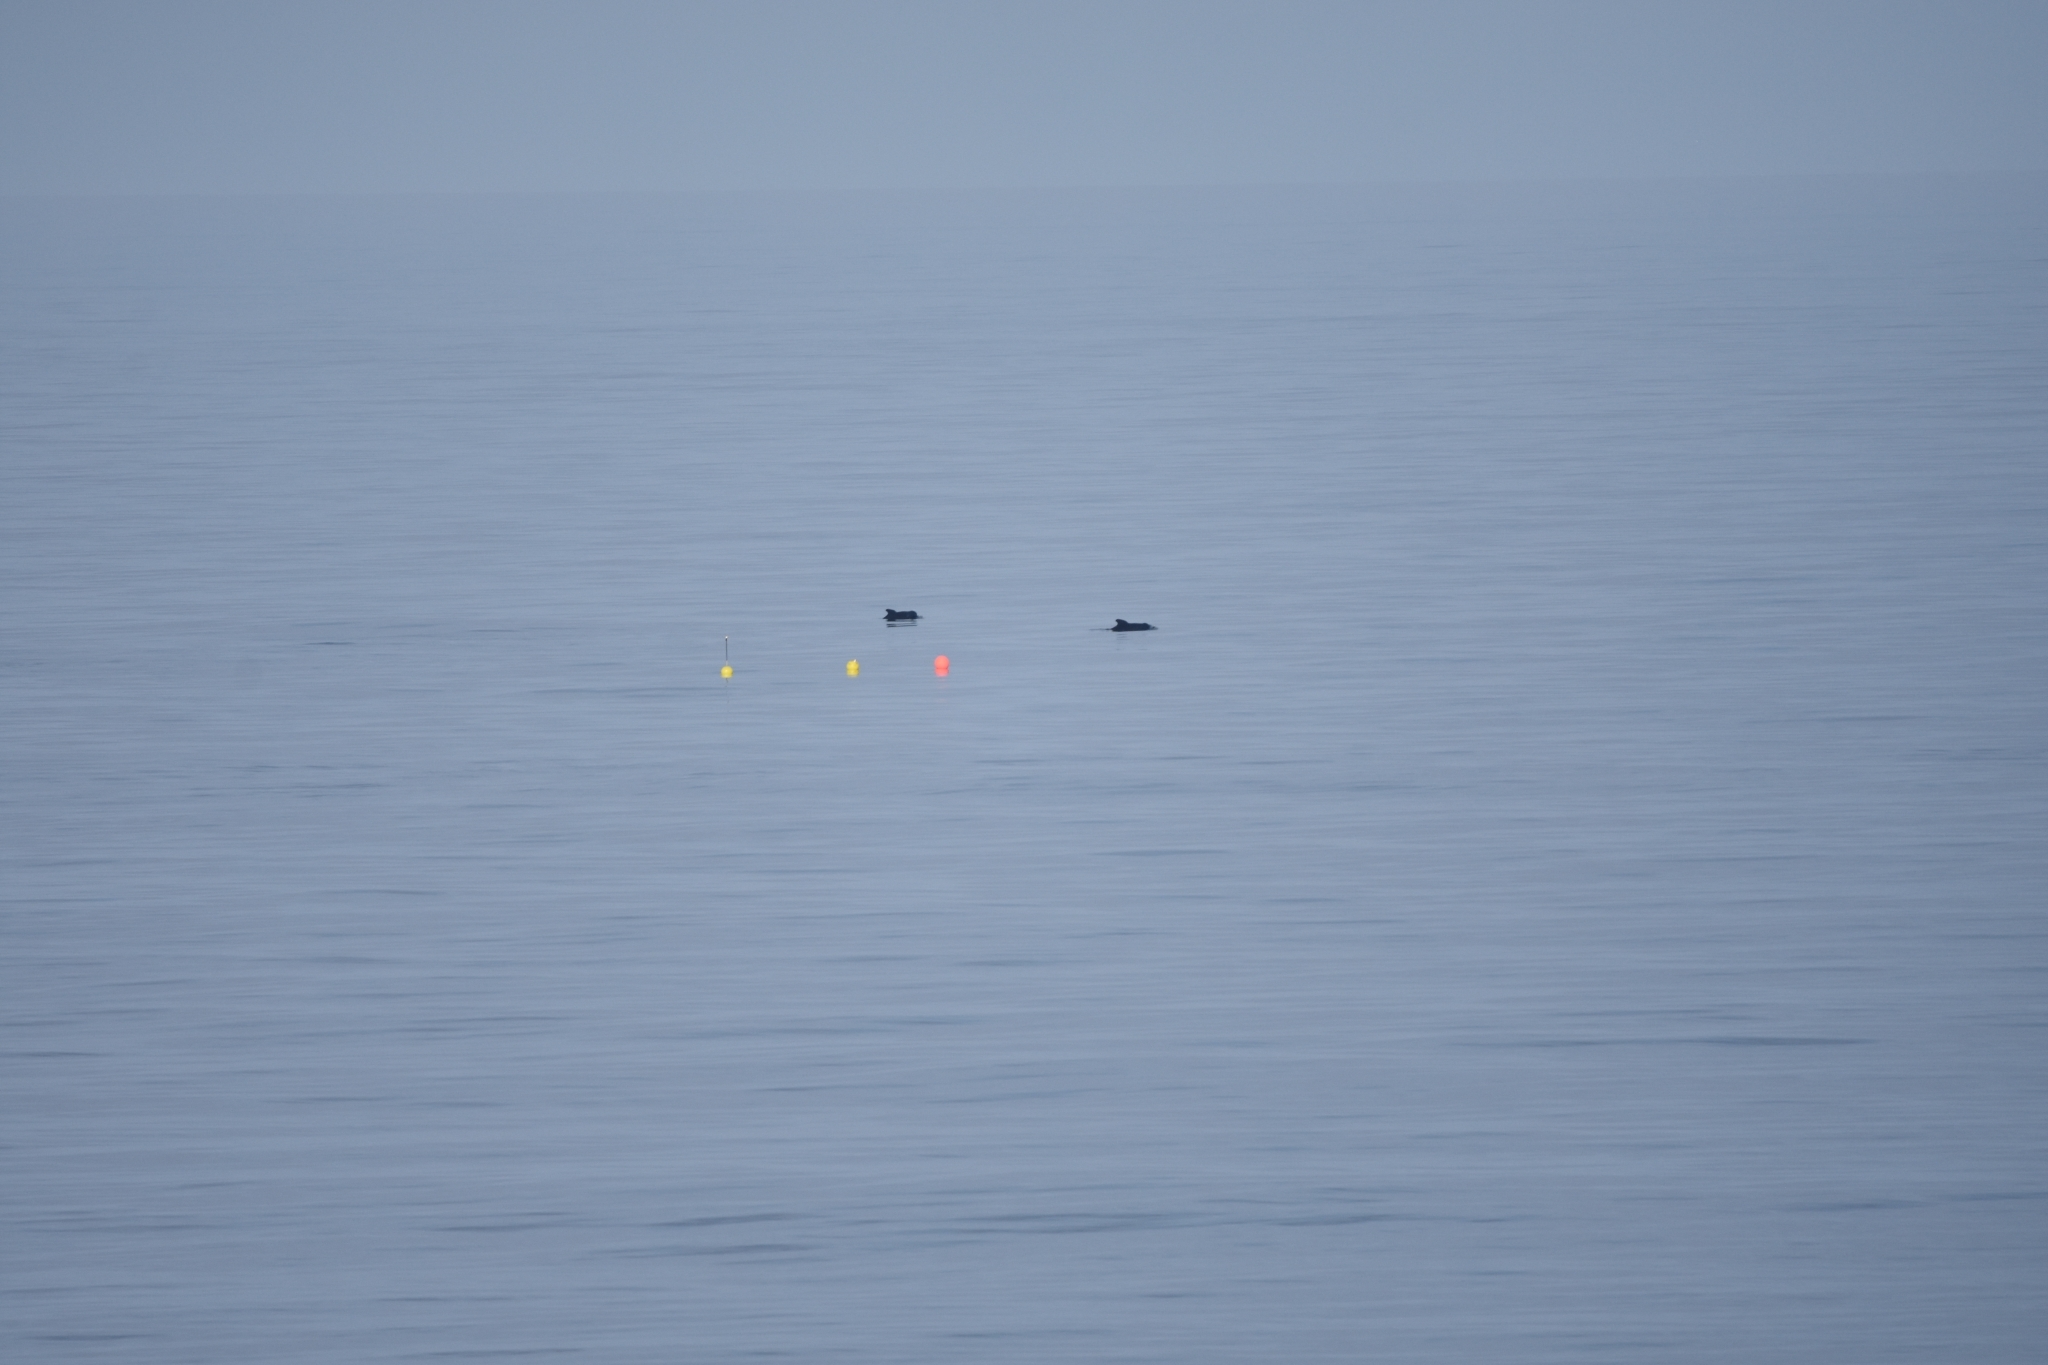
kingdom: Animalia
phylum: Chordata
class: Mammalia
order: Cetacea
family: Delphinidae
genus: Globicephala
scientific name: Globicephala melas
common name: Long-finned pilot whale
